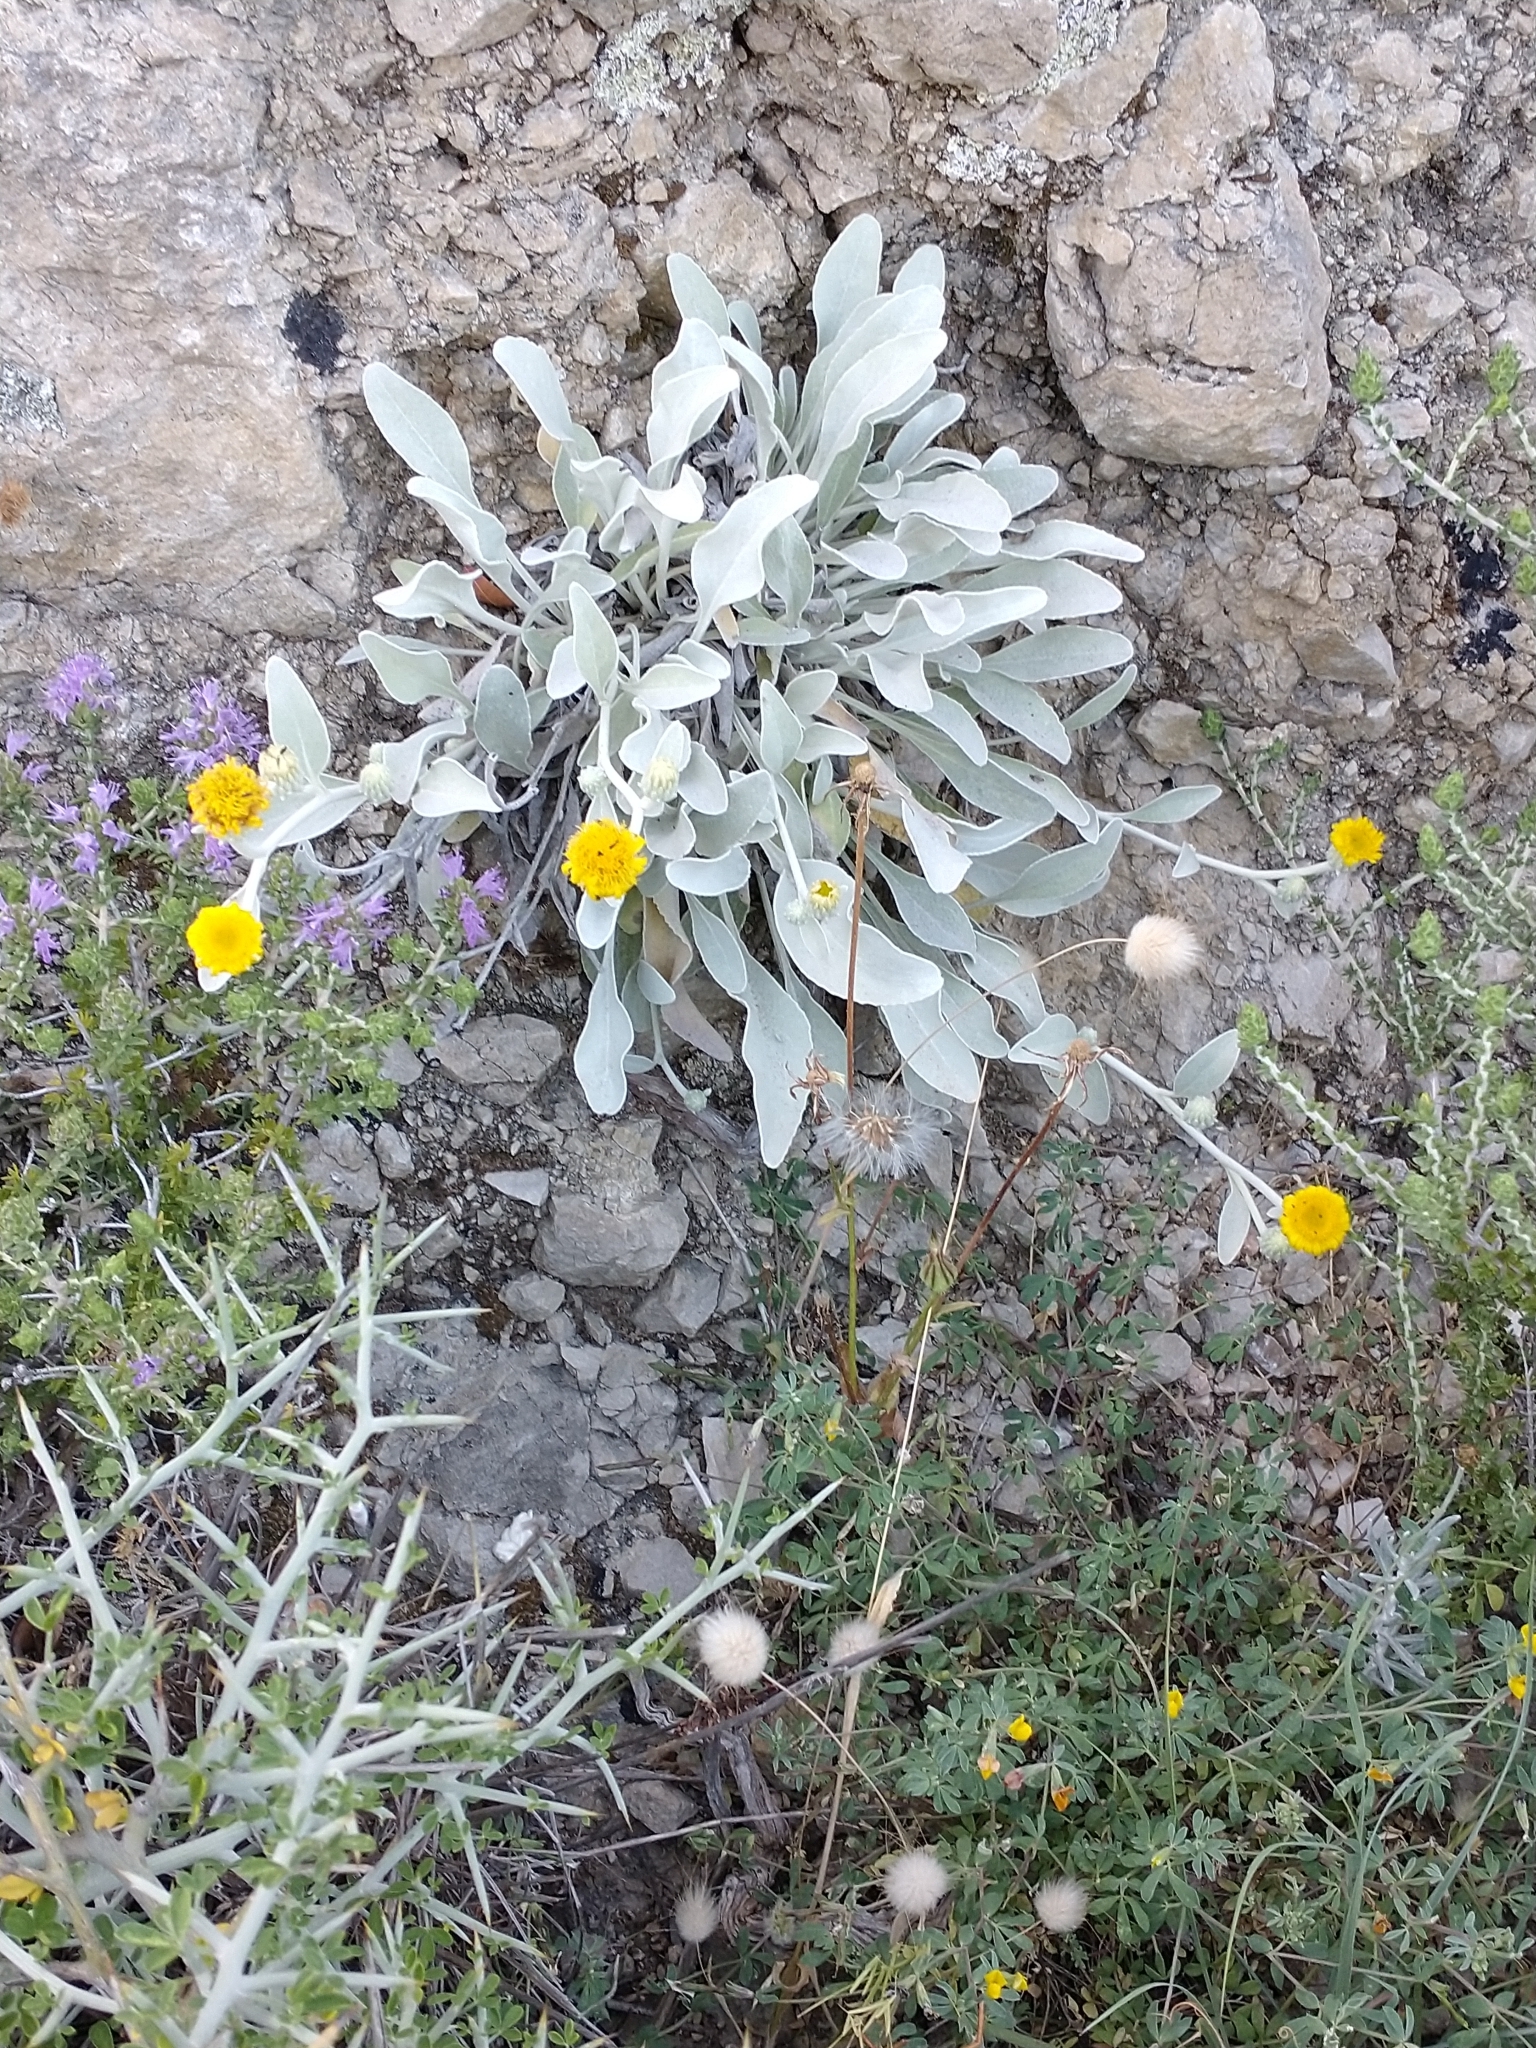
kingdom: Plantae
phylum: Tracheophyta
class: Magnoliopsida
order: Asterales
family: Asteraceae
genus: Pentanema
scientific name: Pentanema verbascifolium
